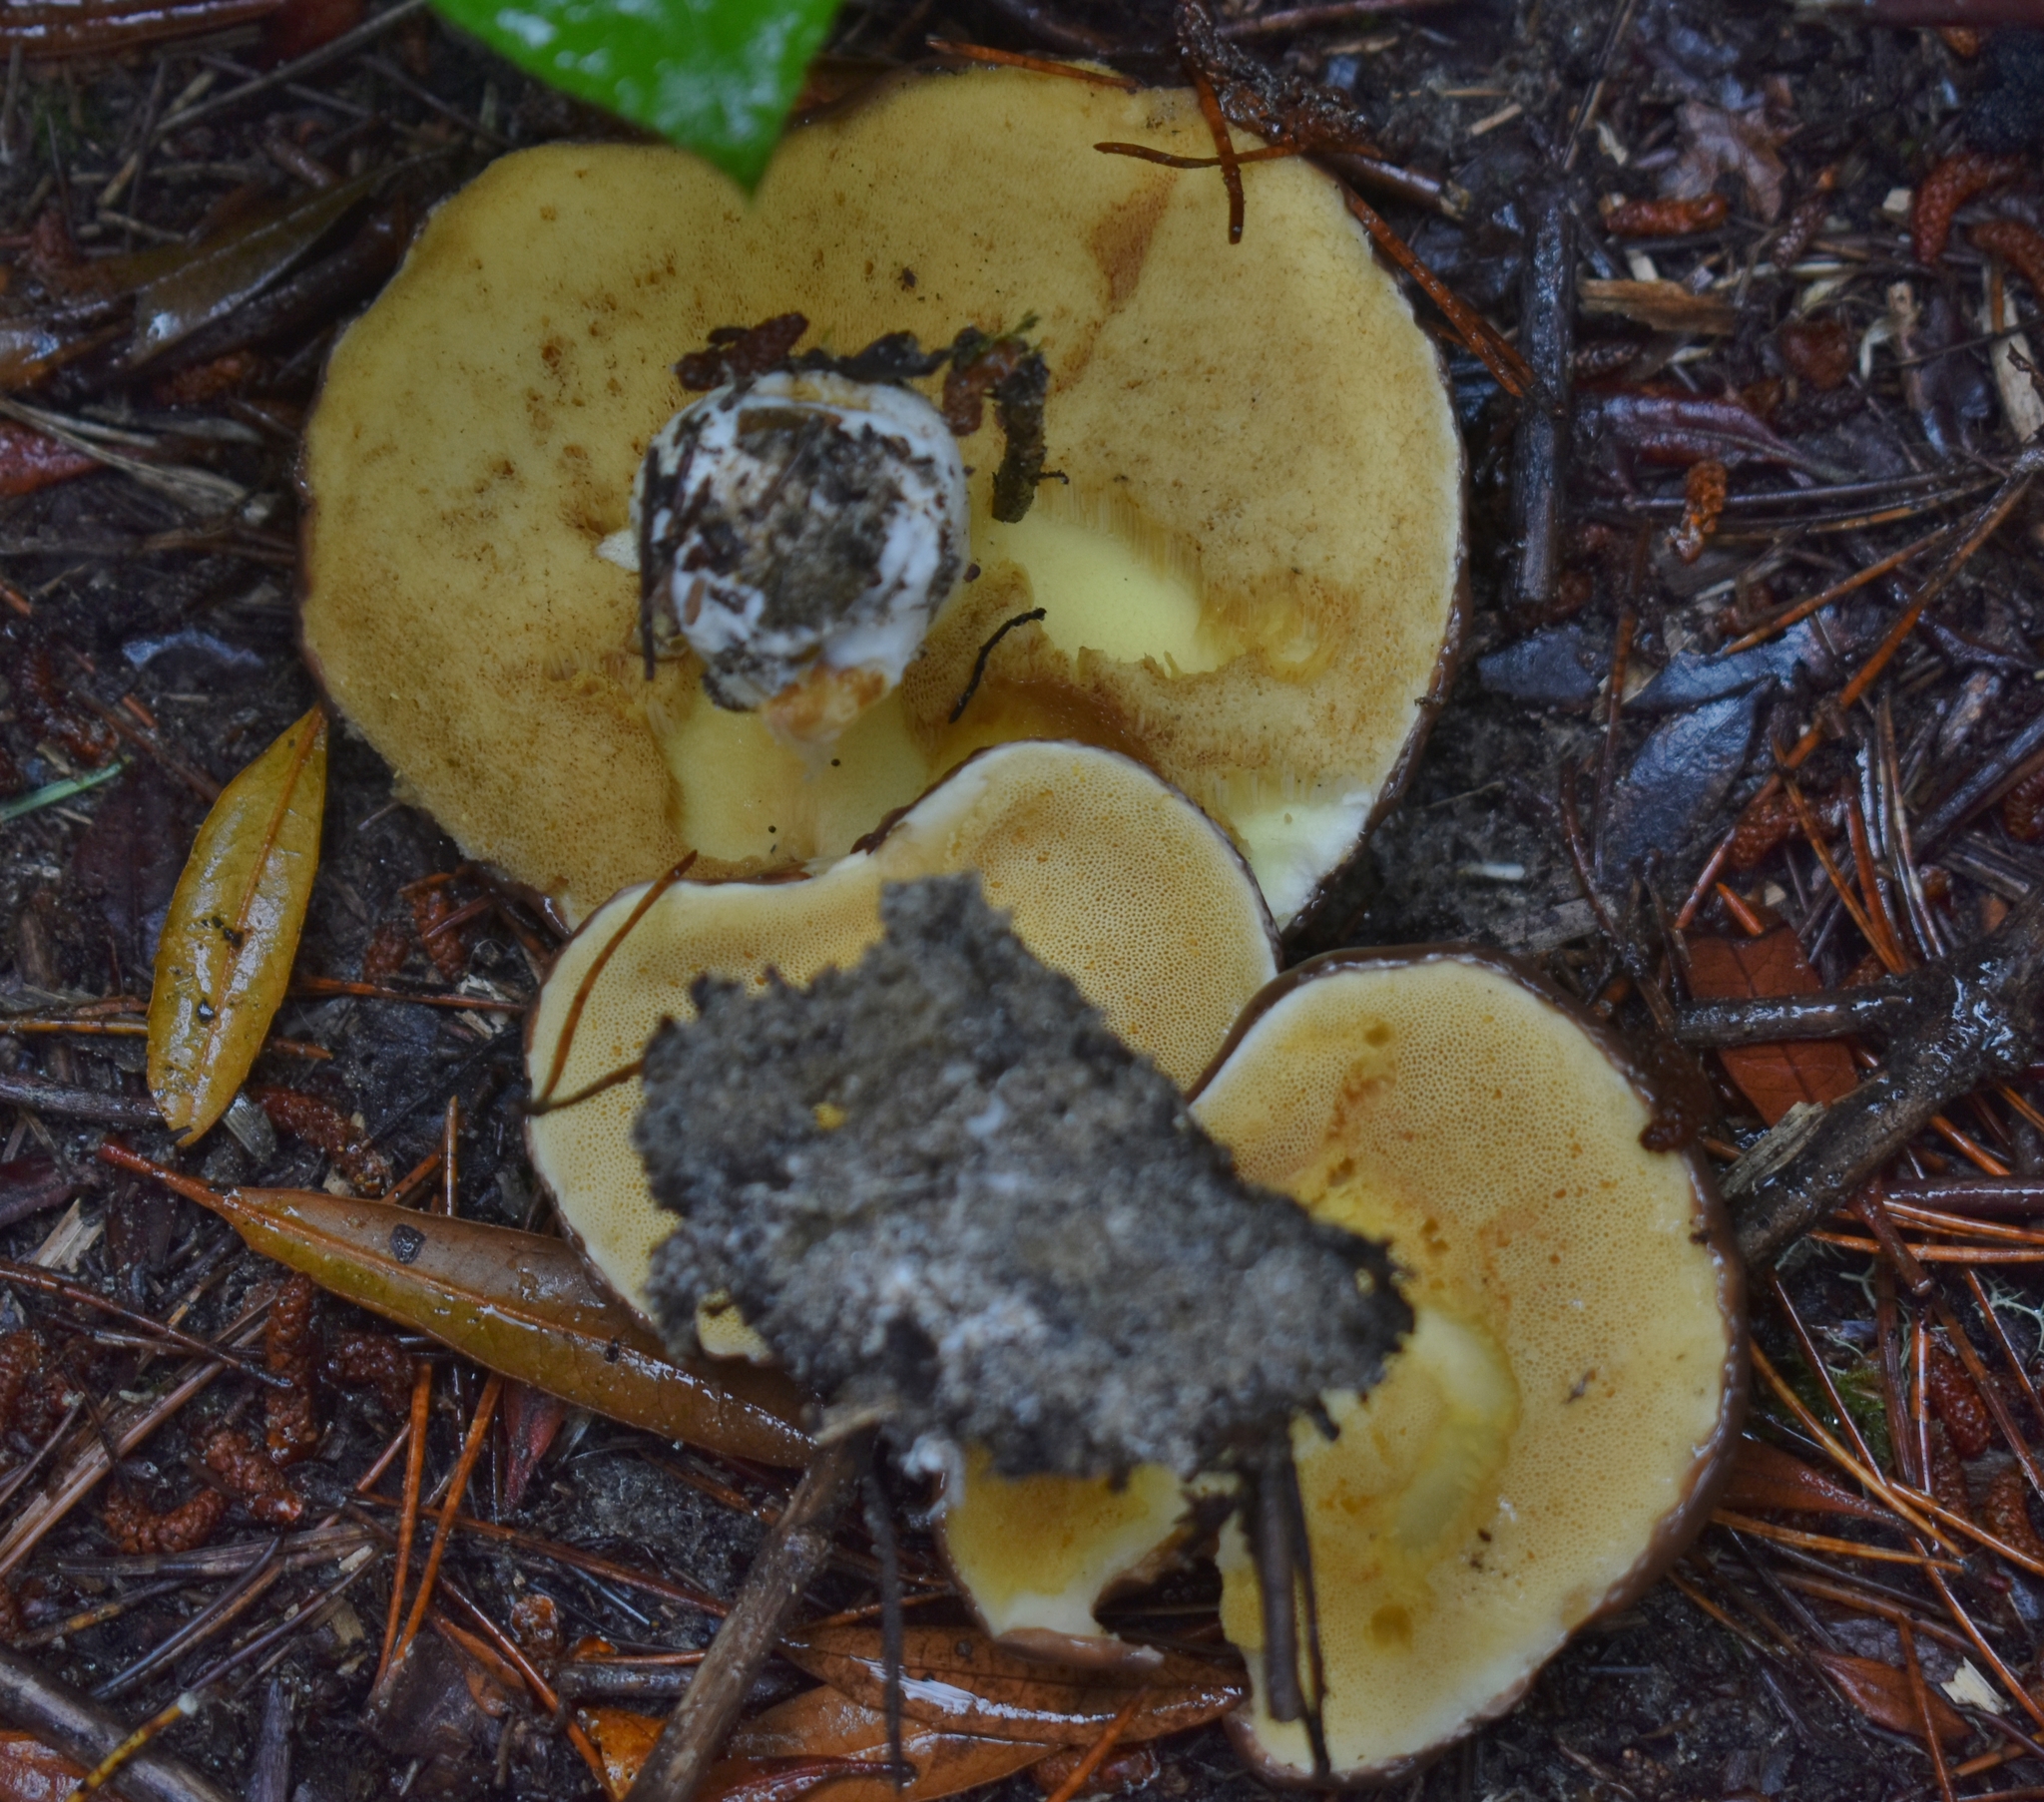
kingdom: Fungi
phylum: Basidiomycota
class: Agaricomycetes
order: Boletales
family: Suillaceae
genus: Suillus
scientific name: Suillus brevipes
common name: Short-stalked suillus
